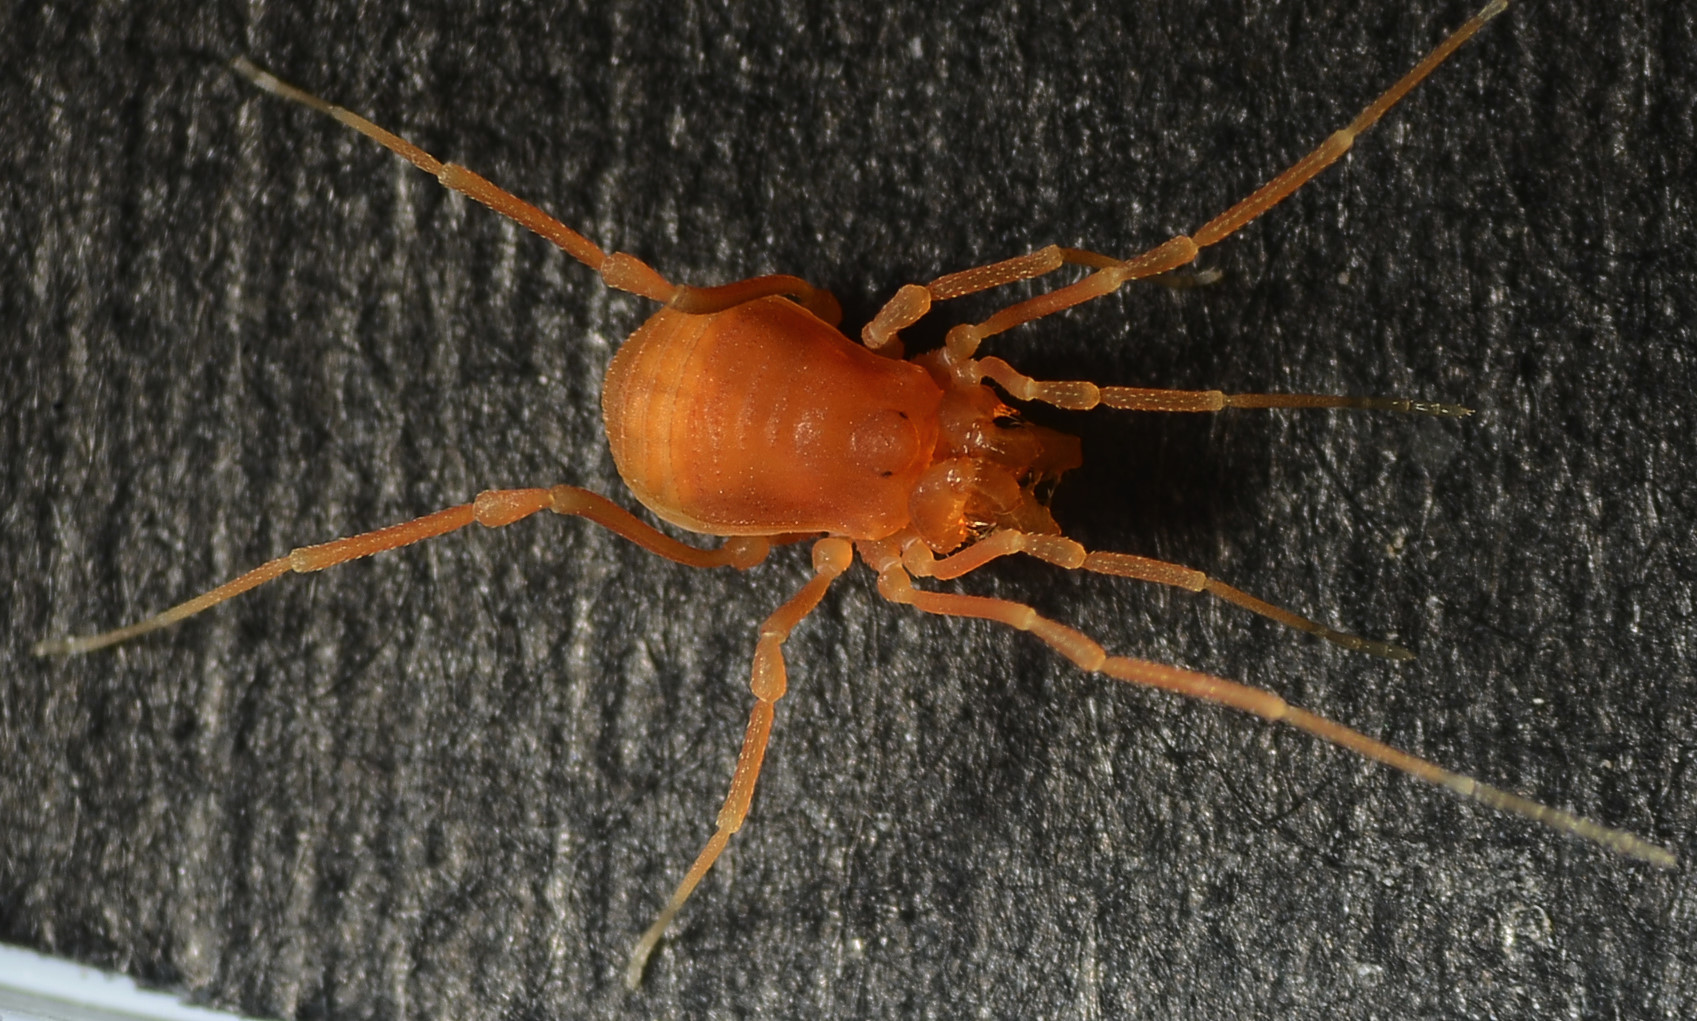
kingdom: Animalia
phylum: Arthropoda
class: Arachnida
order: Opiliones
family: Phalangodidae
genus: Megacina
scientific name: Megacina cockerelli
